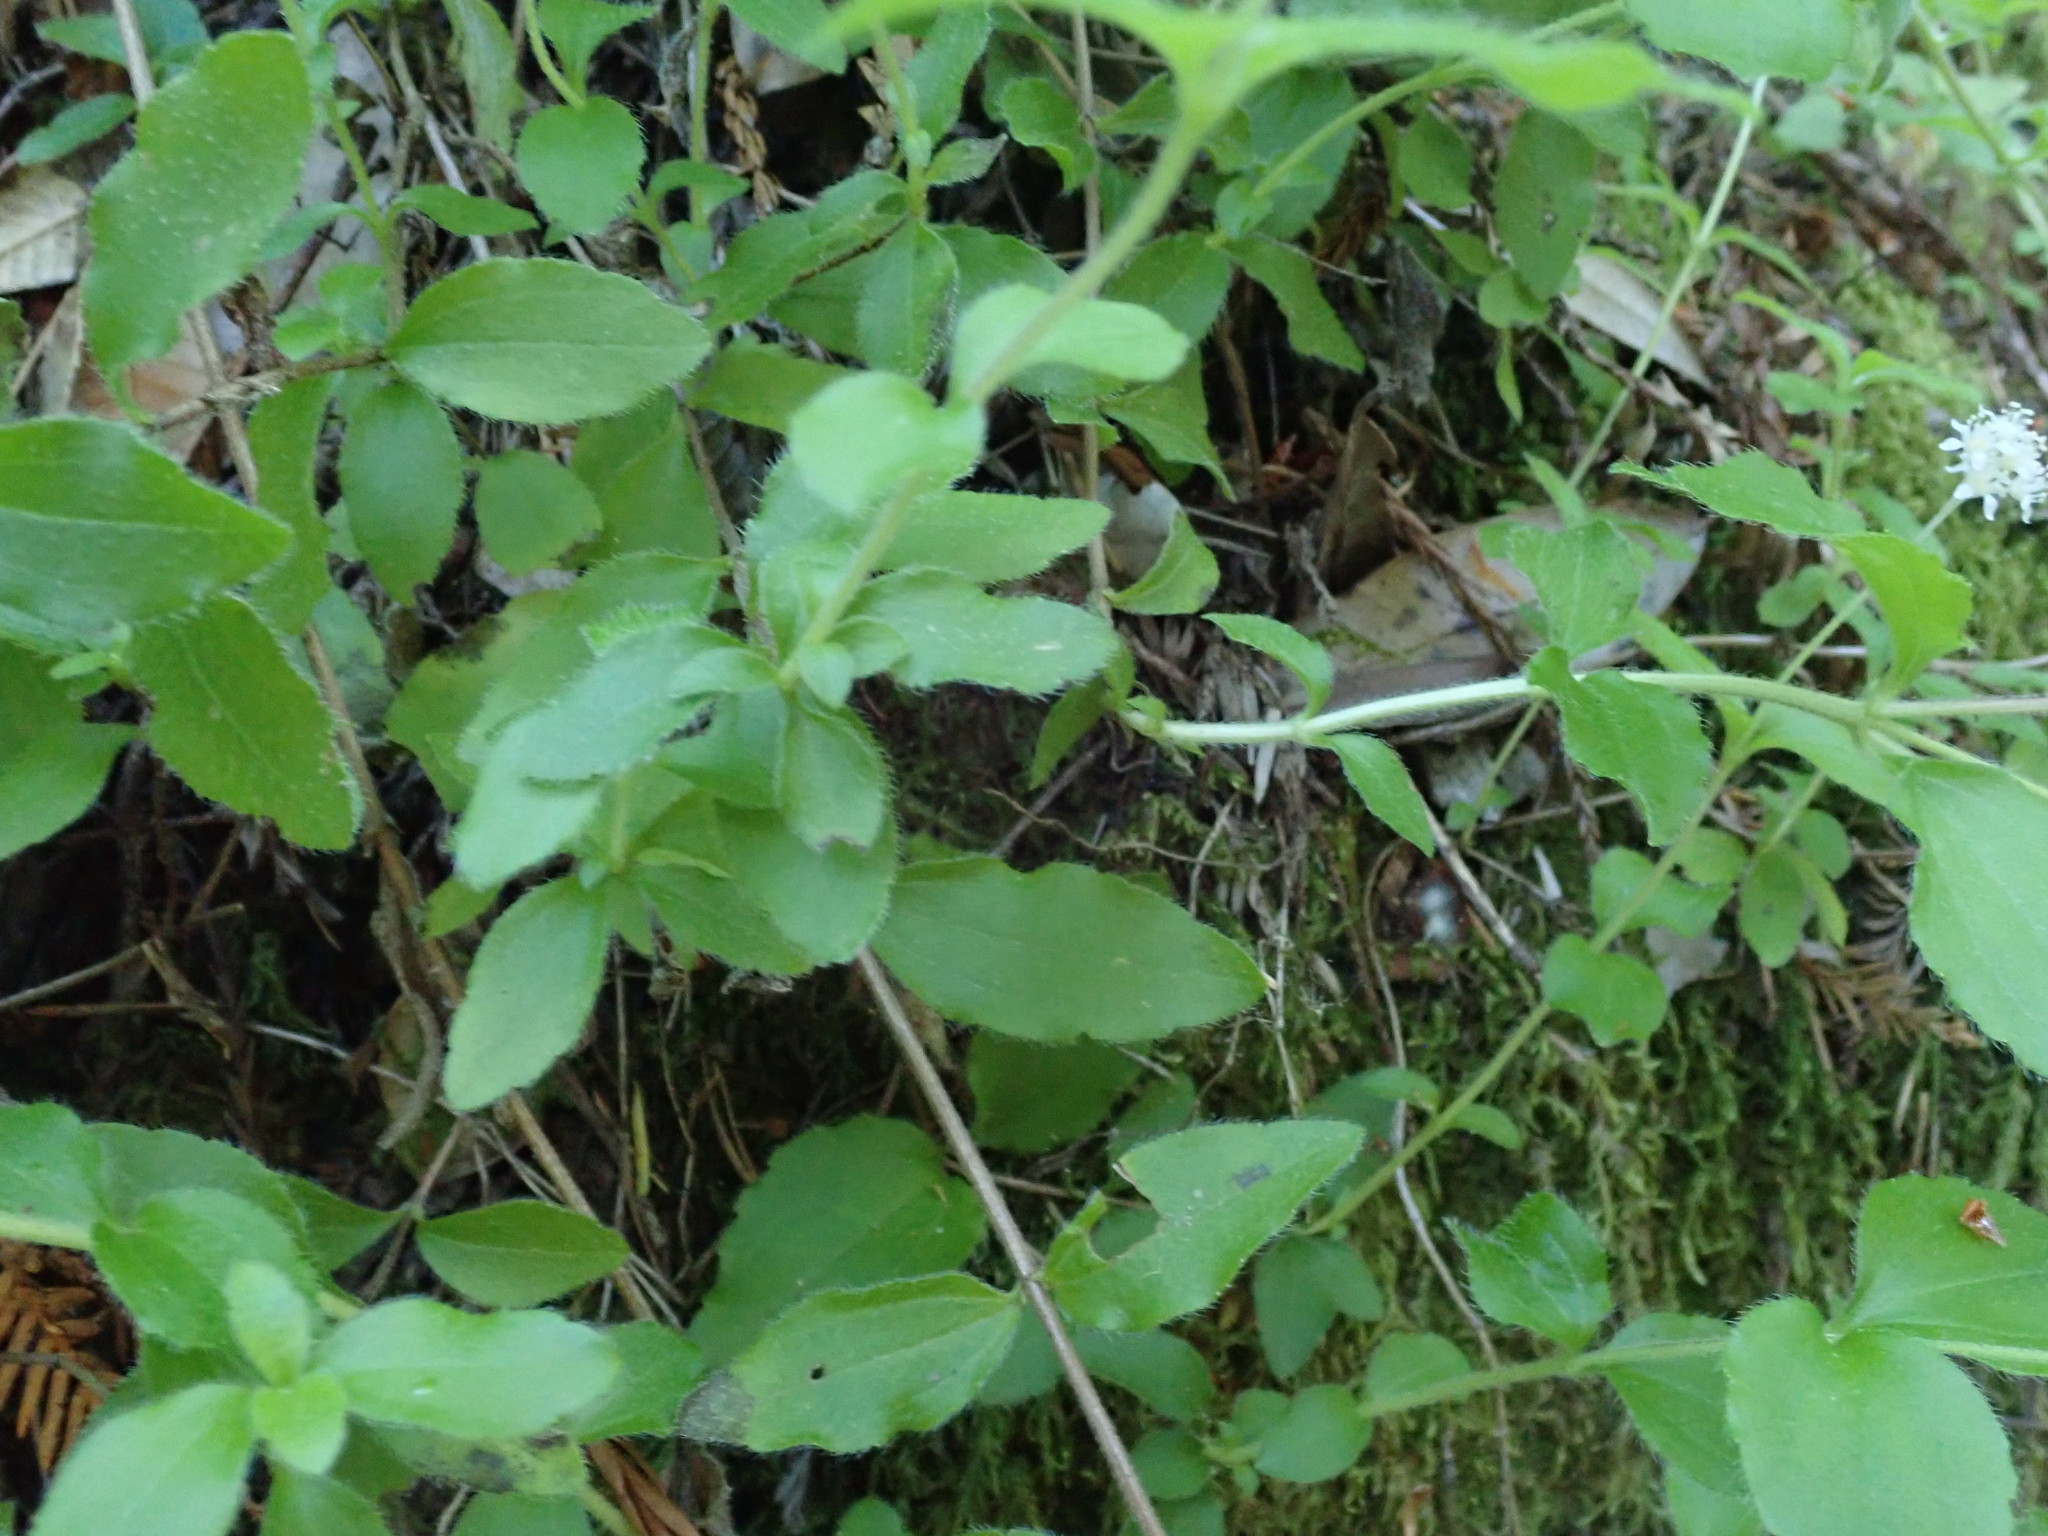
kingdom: Plantae
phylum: Tracheophyta
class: Magnoliopsida
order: Cornales
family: Hydrangeaceae
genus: Whipplea
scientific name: Whipplea modesta
